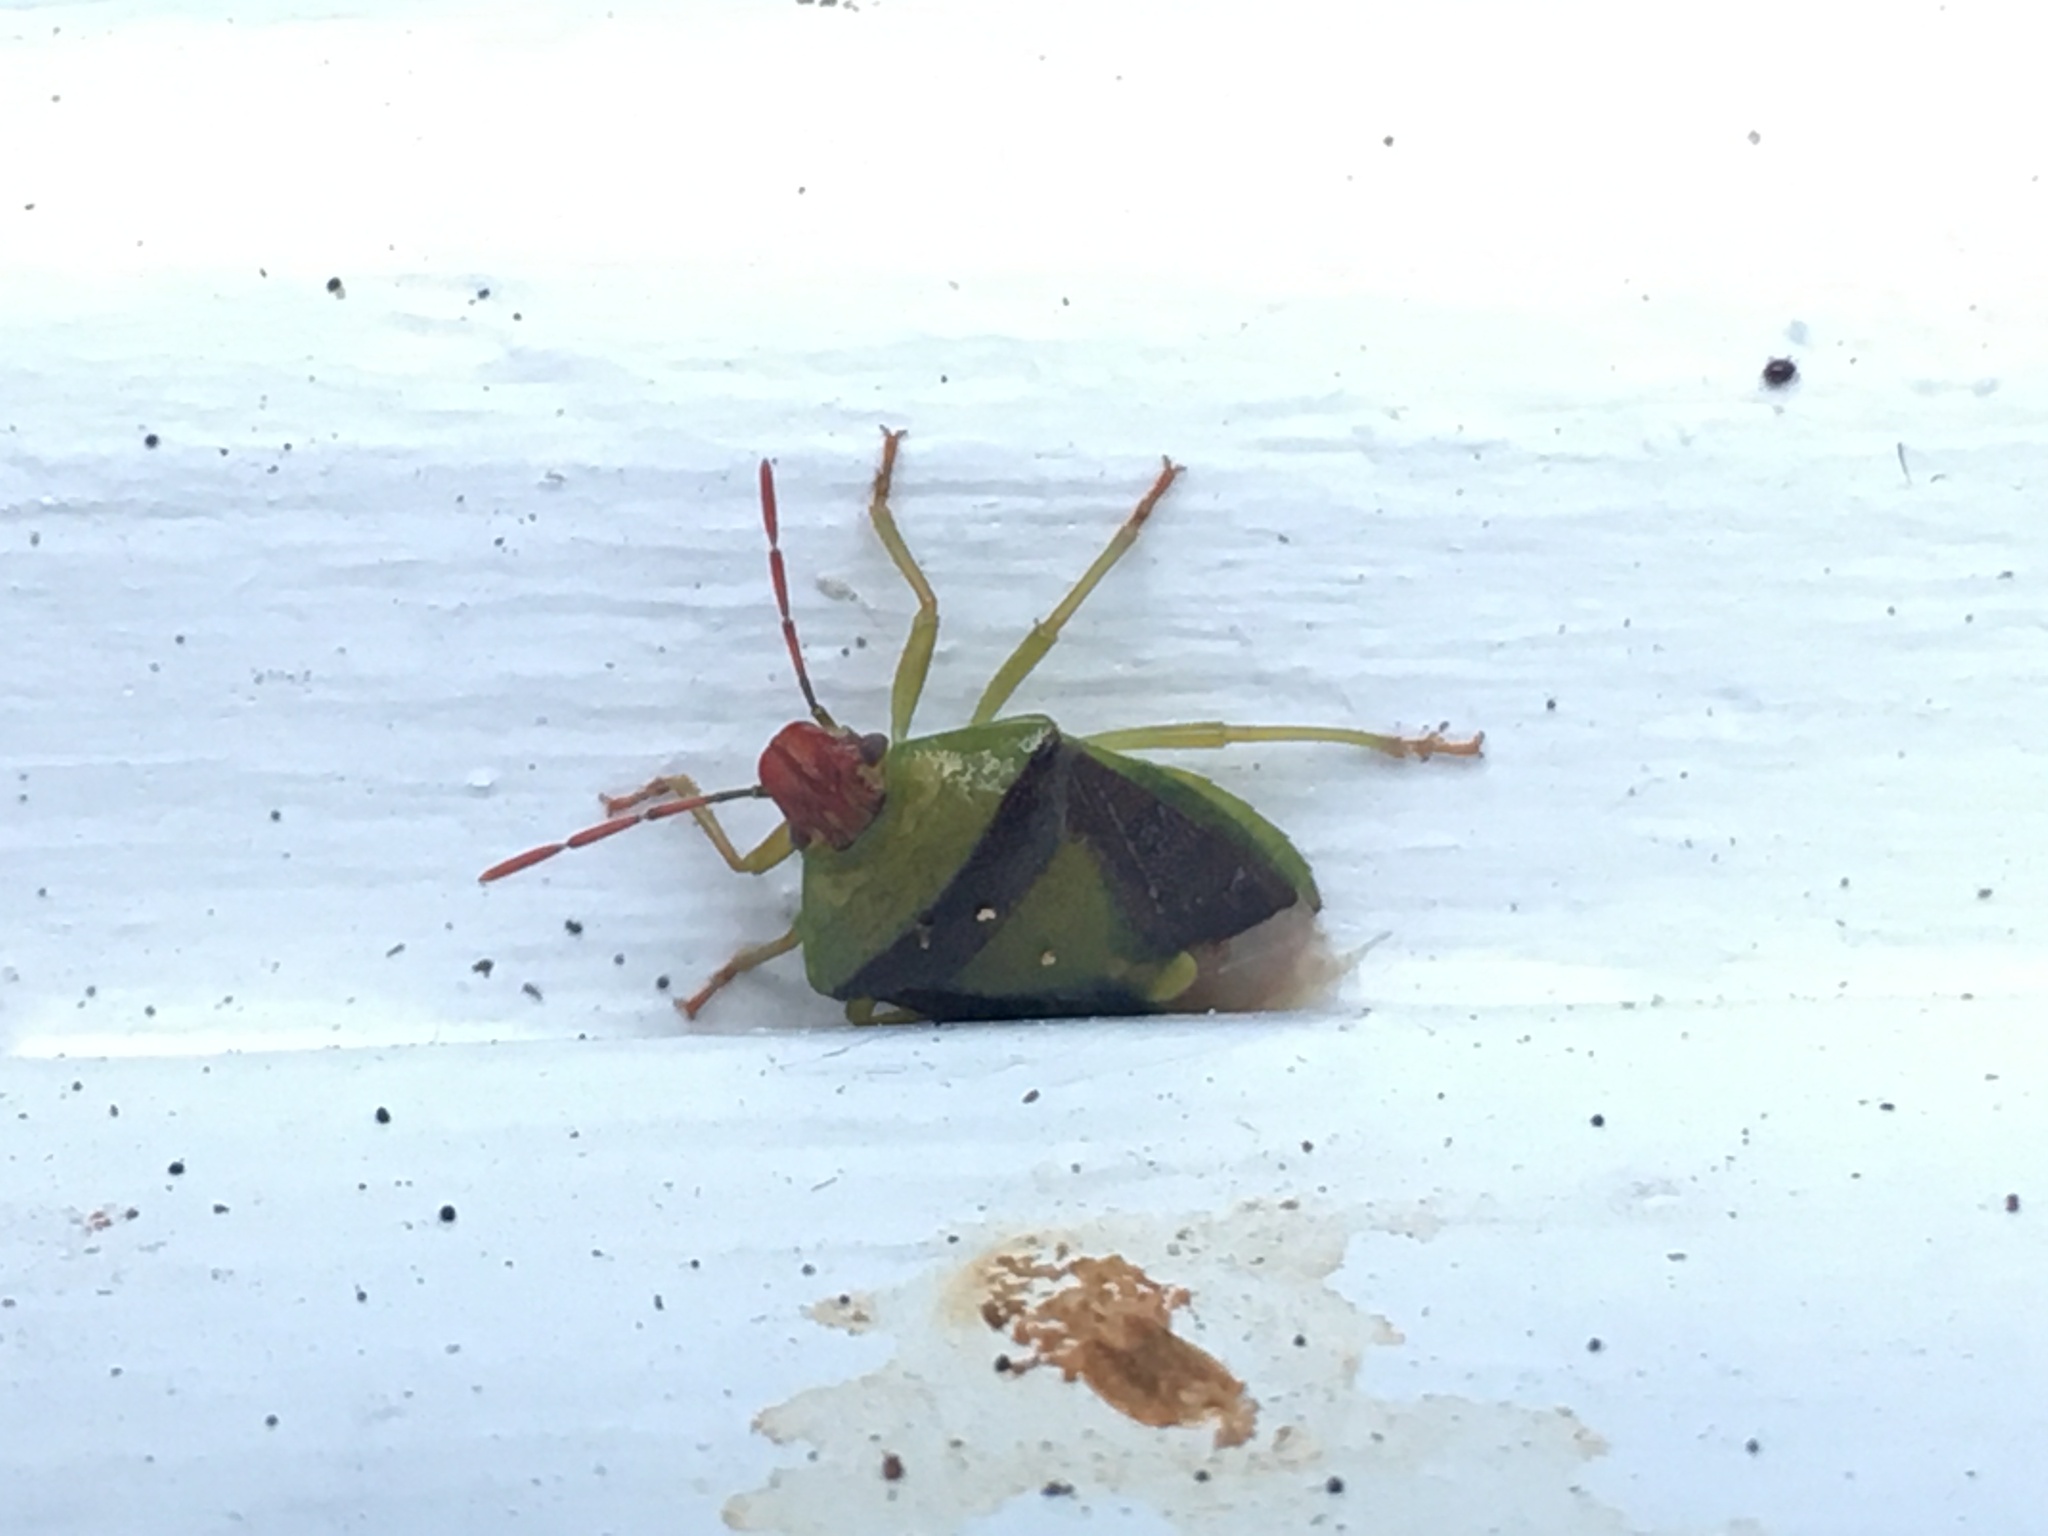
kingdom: Animalia
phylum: Arthropoda
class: Insecta
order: Hemiptera
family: Pentatomidae
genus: Banasa
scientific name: Banasa dimidiata
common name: Green burgundy stink bug
